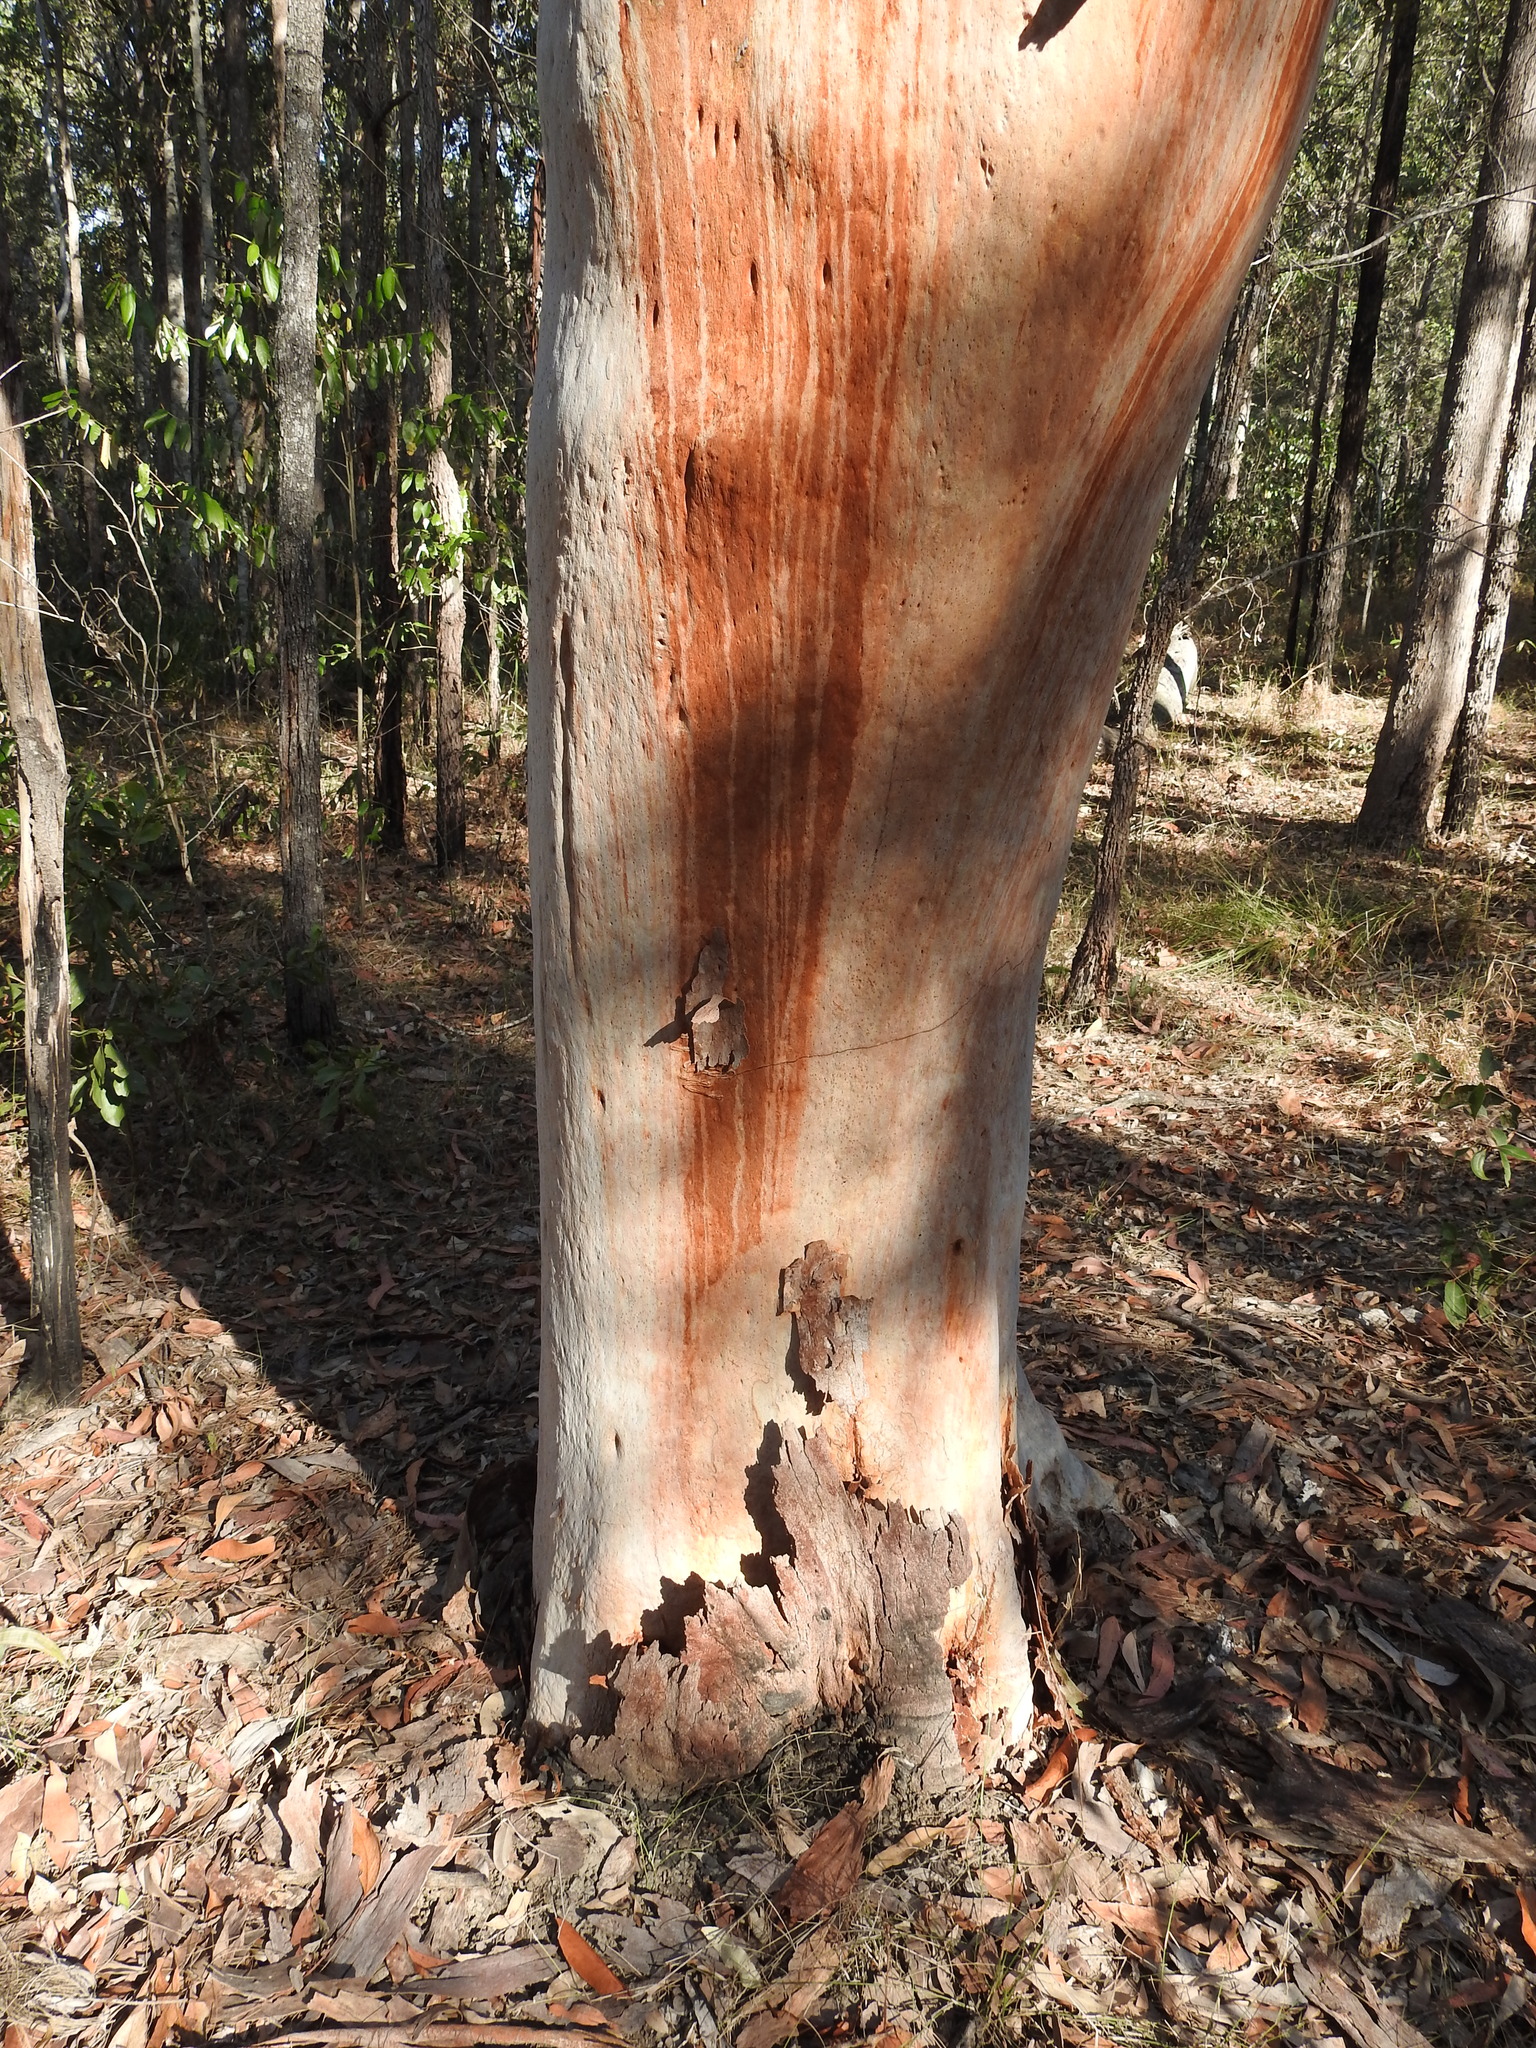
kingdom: Plantae
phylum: Tracheophyta
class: Magnoliopsida
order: Myrtales
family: Myrtaceae
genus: Angophora
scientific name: Angophora leiocarpa
